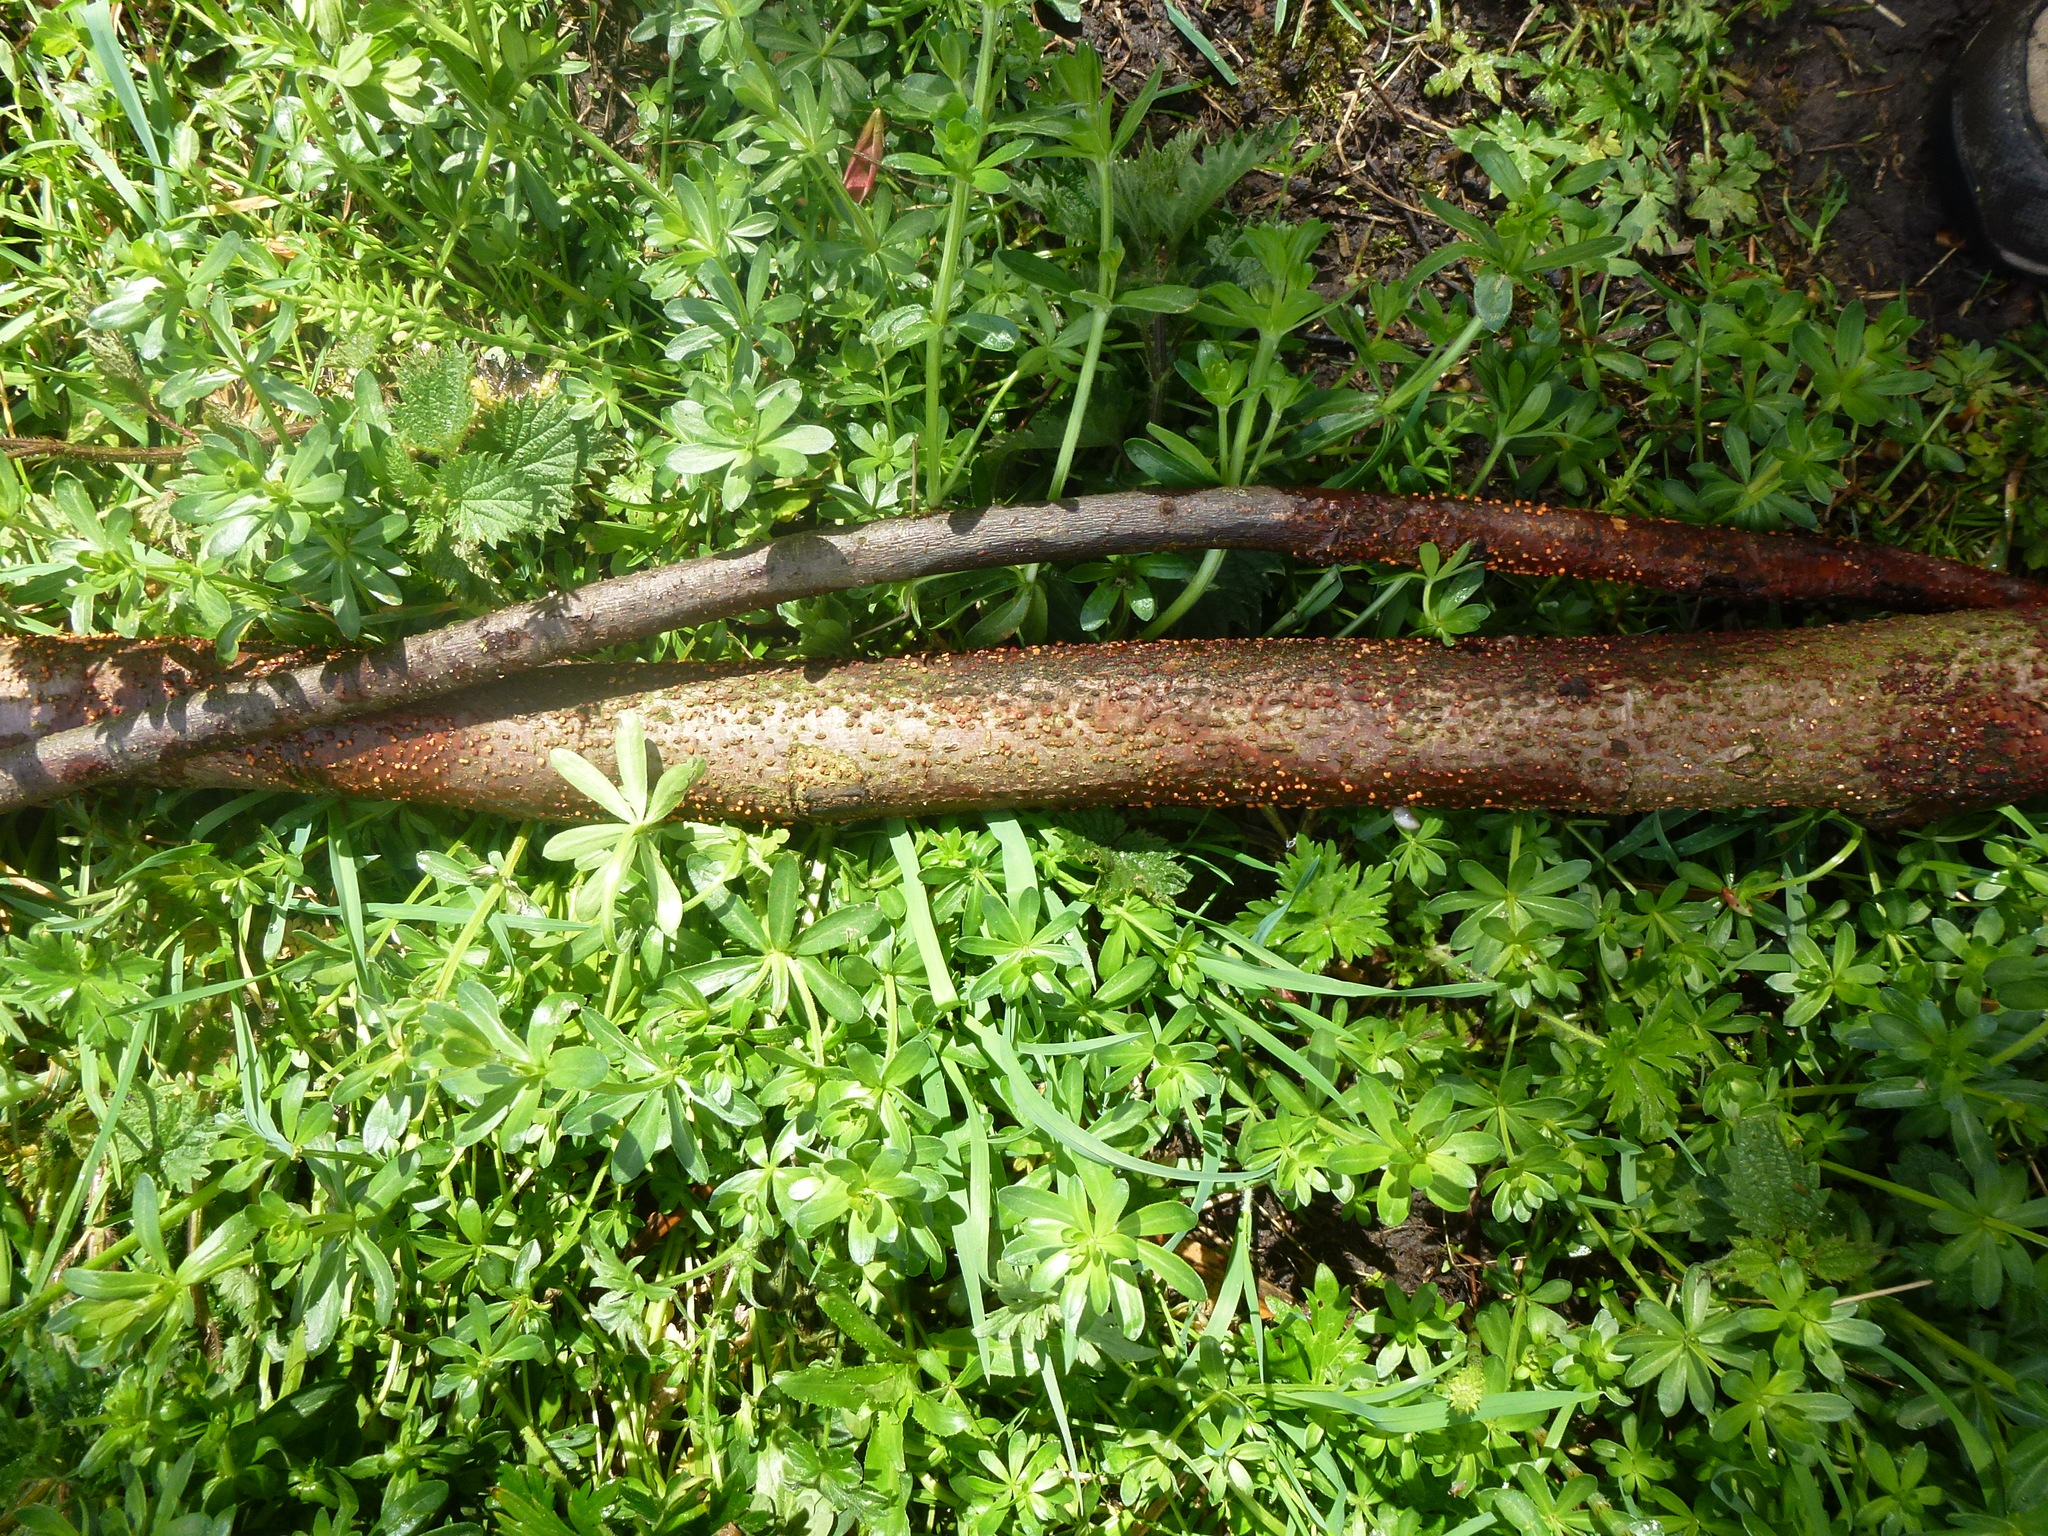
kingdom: Fungi
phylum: Ascomycota
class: Sordariomycetes
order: Hypocreales
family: Nectriaceae
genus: Nectria
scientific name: Nectria cinnabarina
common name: Coral spot
